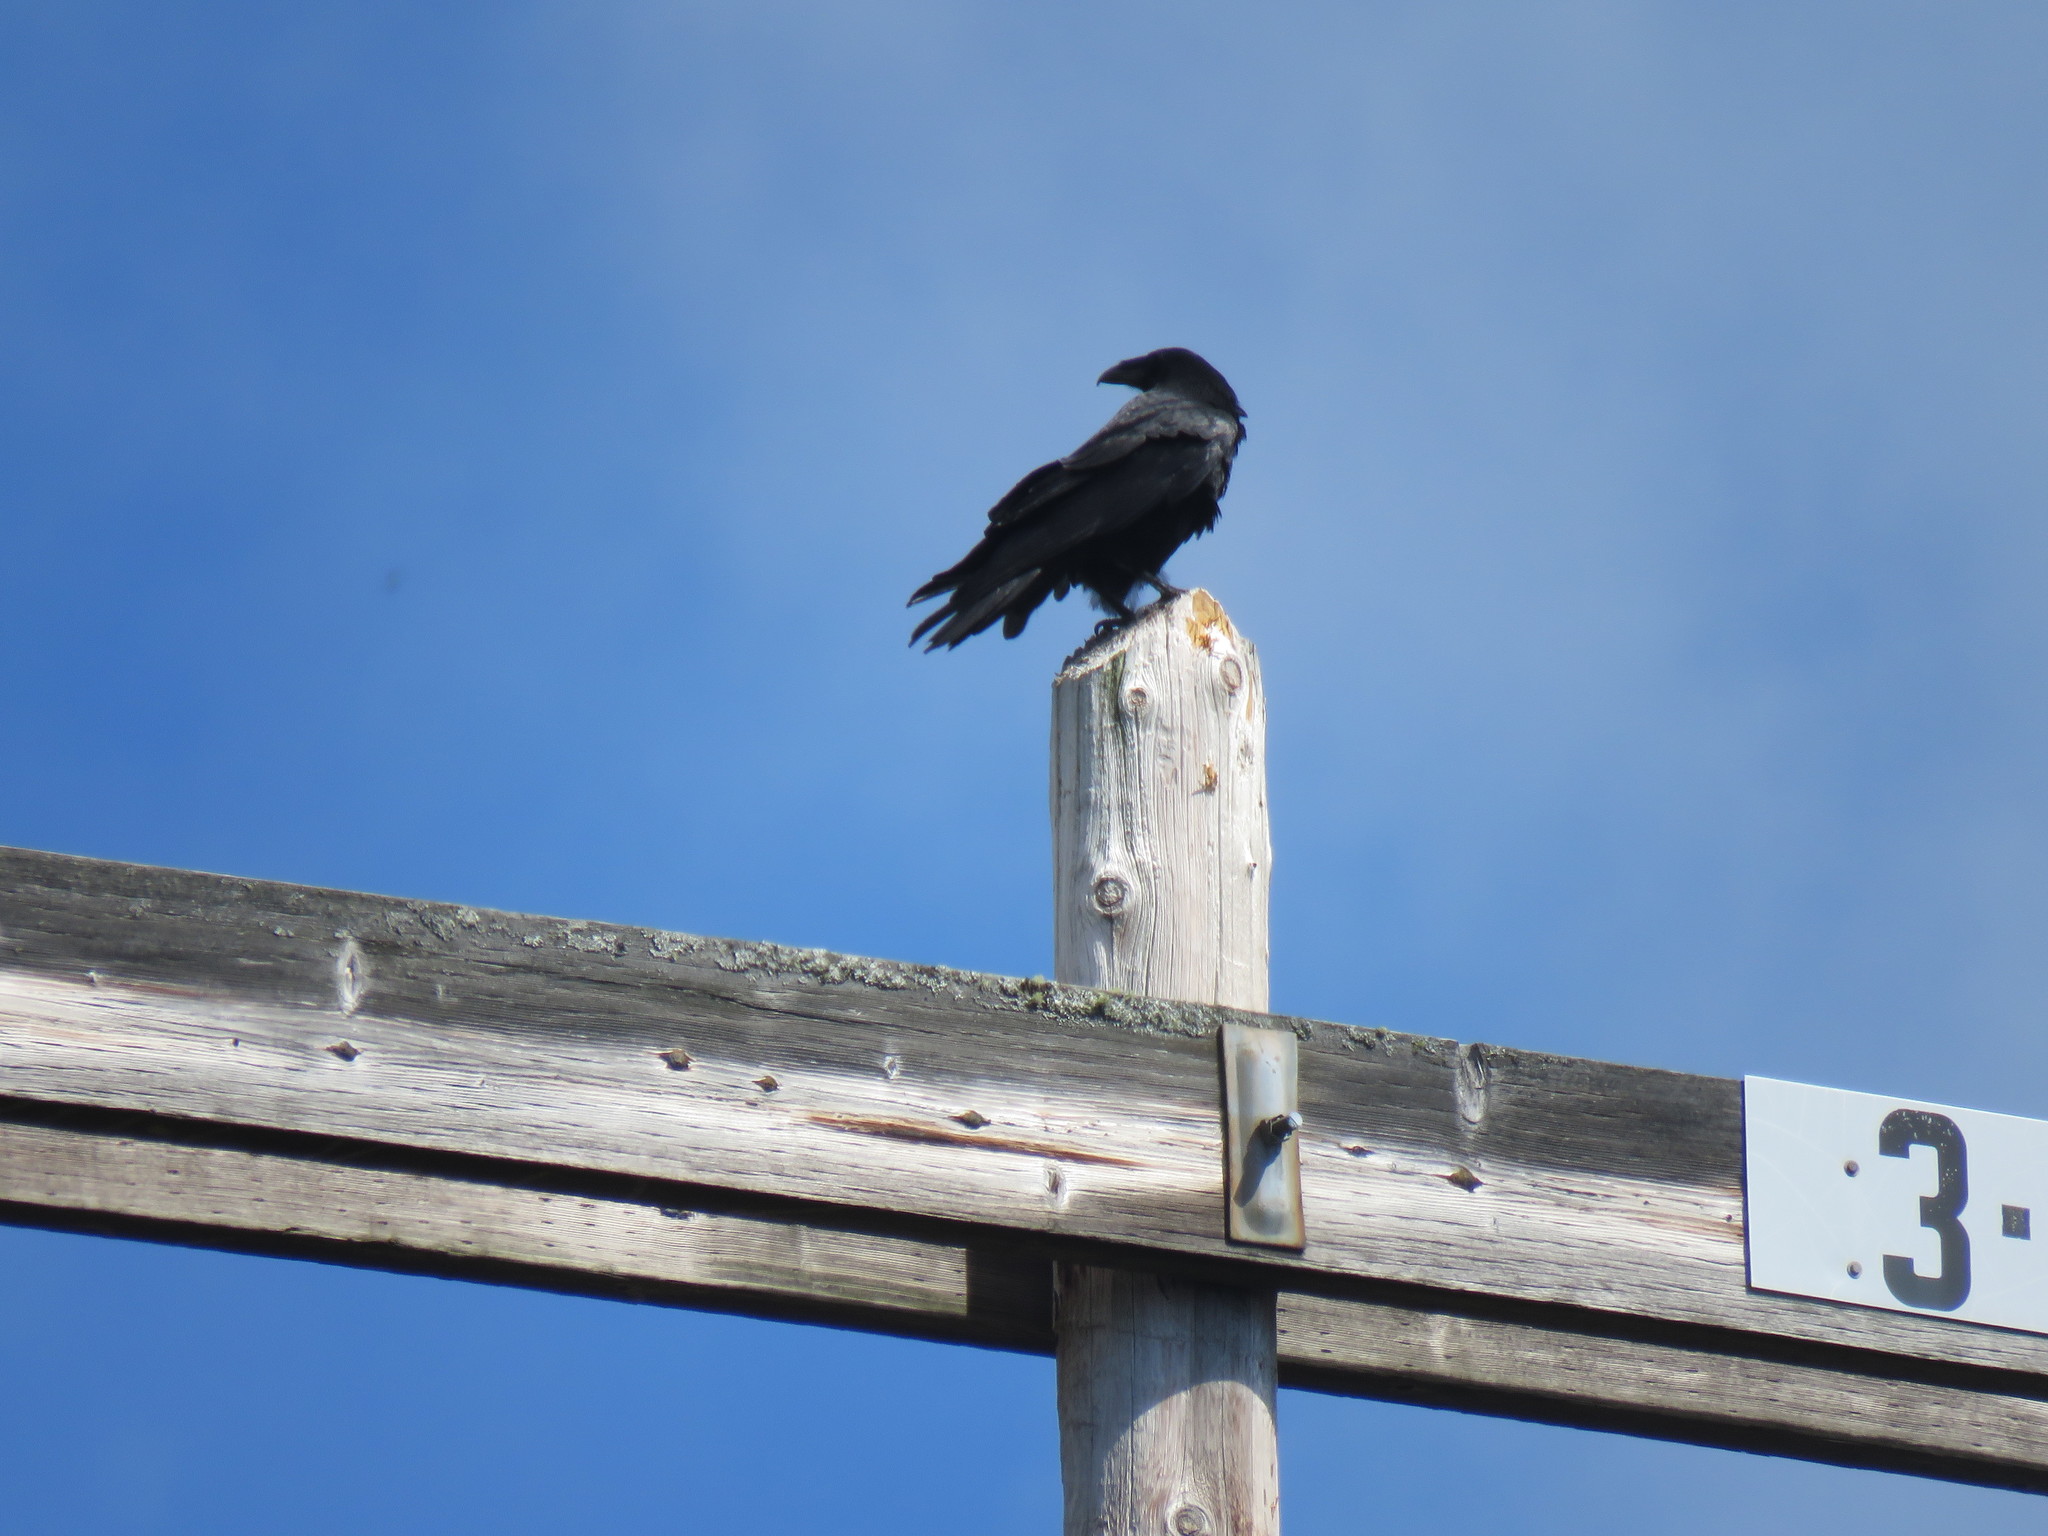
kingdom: Animalia
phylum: Chordata
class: Aves
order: Passeriformes
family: Corvidae
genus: Corvus
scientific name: Corvus corax
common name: Common raven
